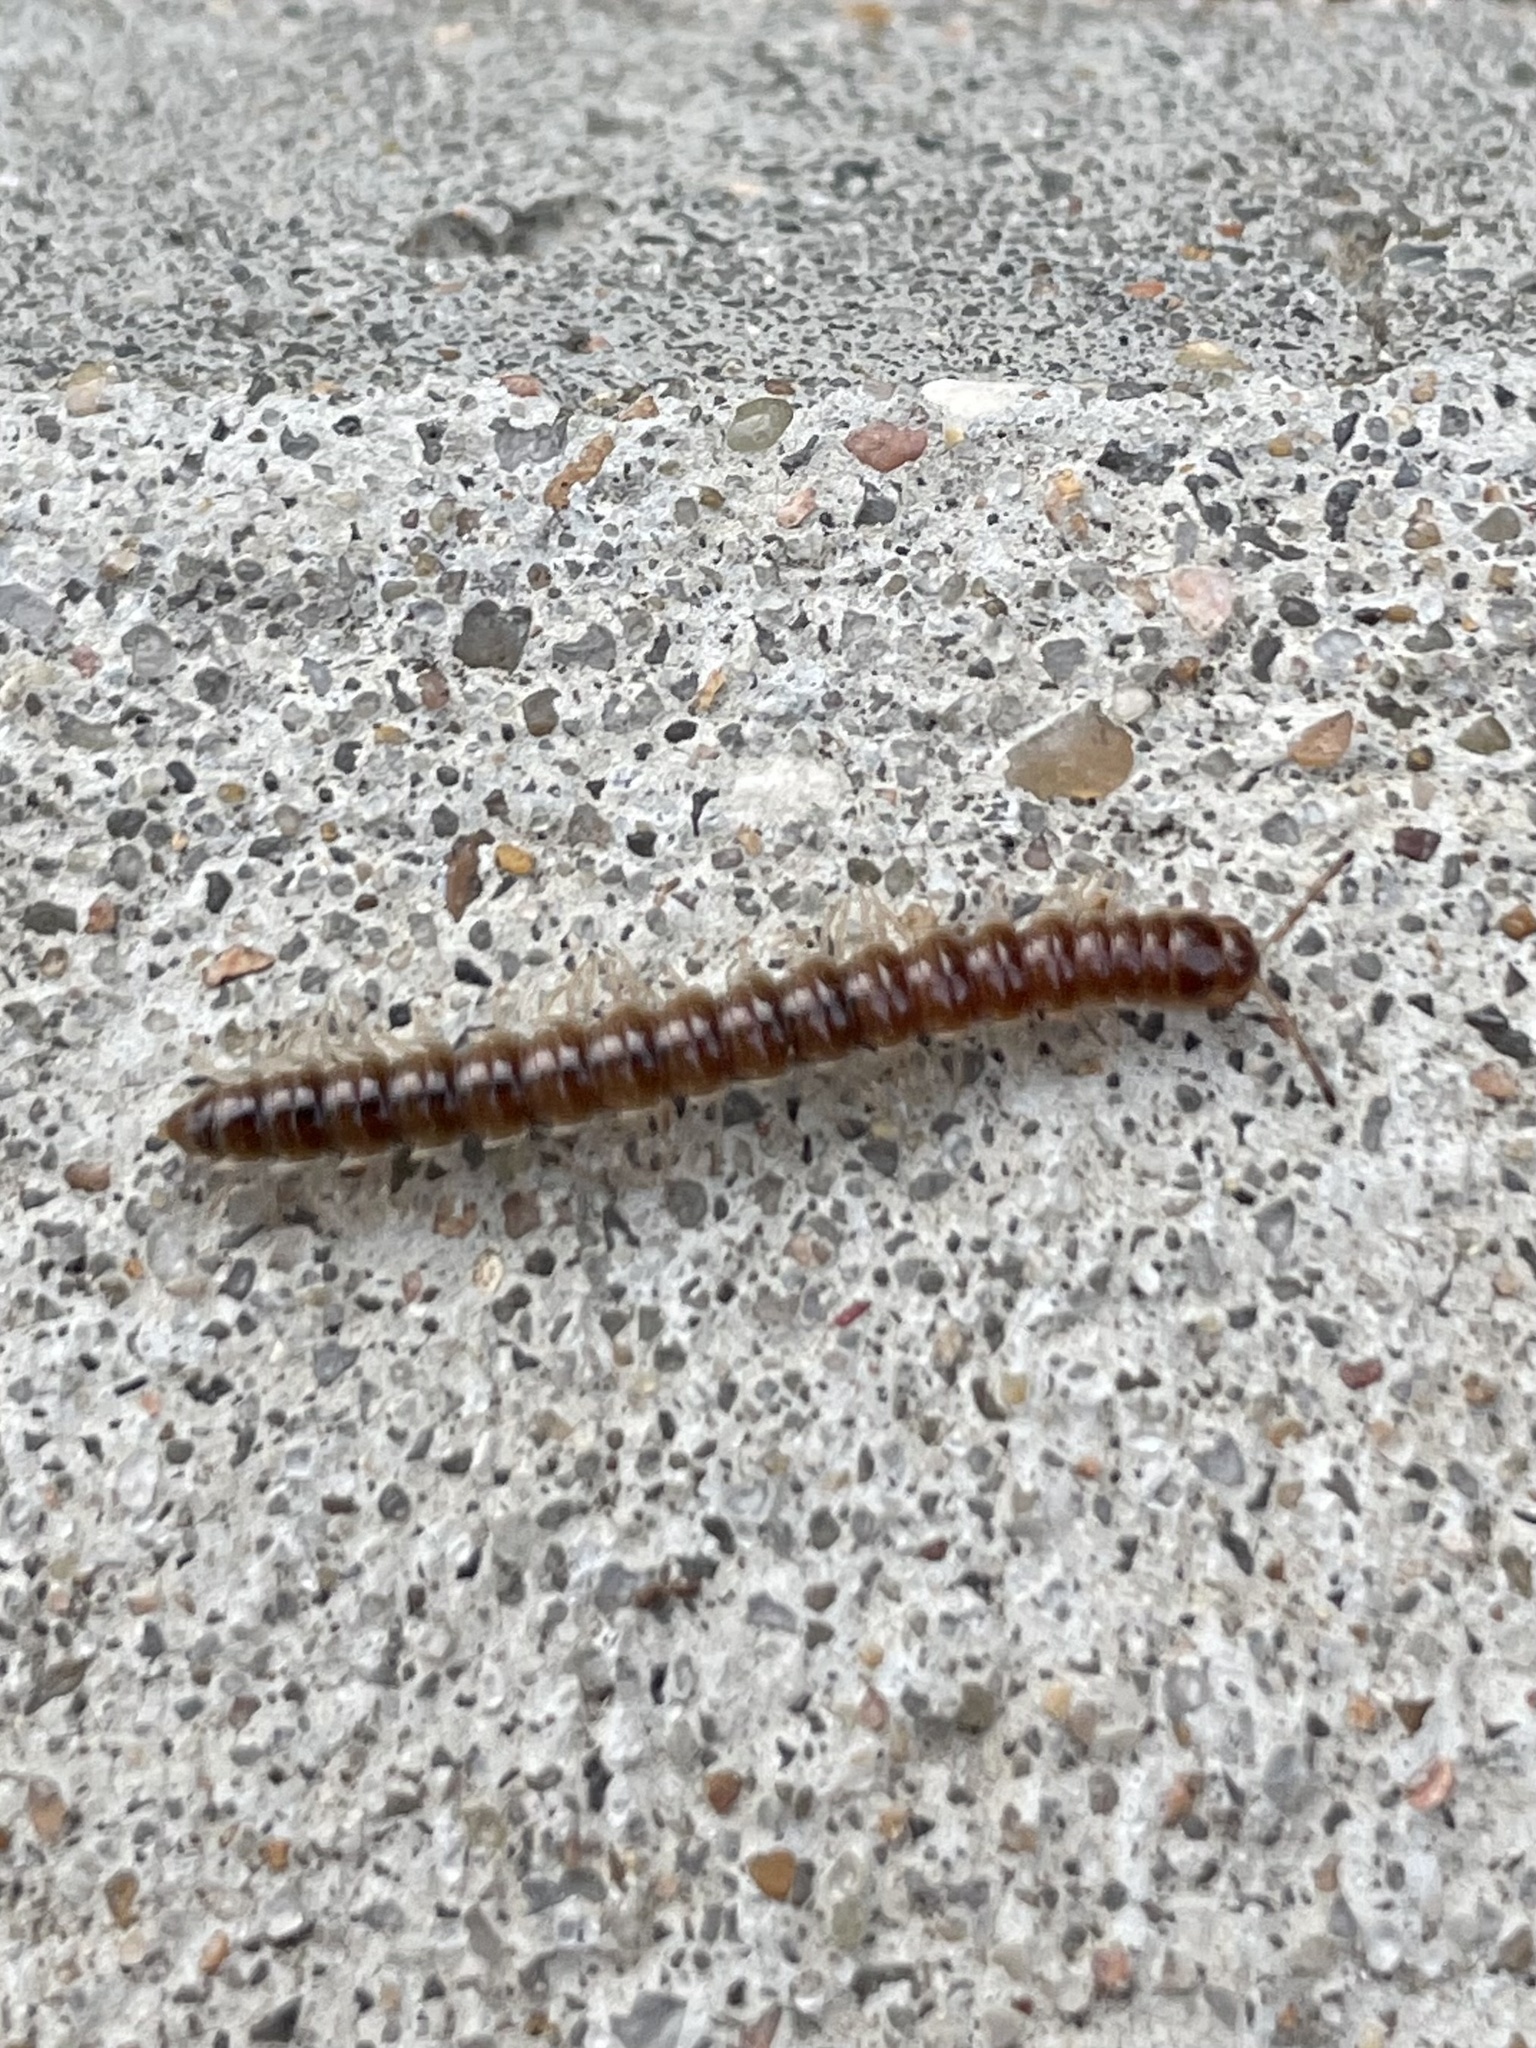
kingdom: Animalia
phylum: Arthropoda
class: Diplopoda
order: Polydesmida
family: Paradoxosomatidae
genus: Oxidus
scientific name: Oxidus gracilis
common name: Greenhouse millipede
